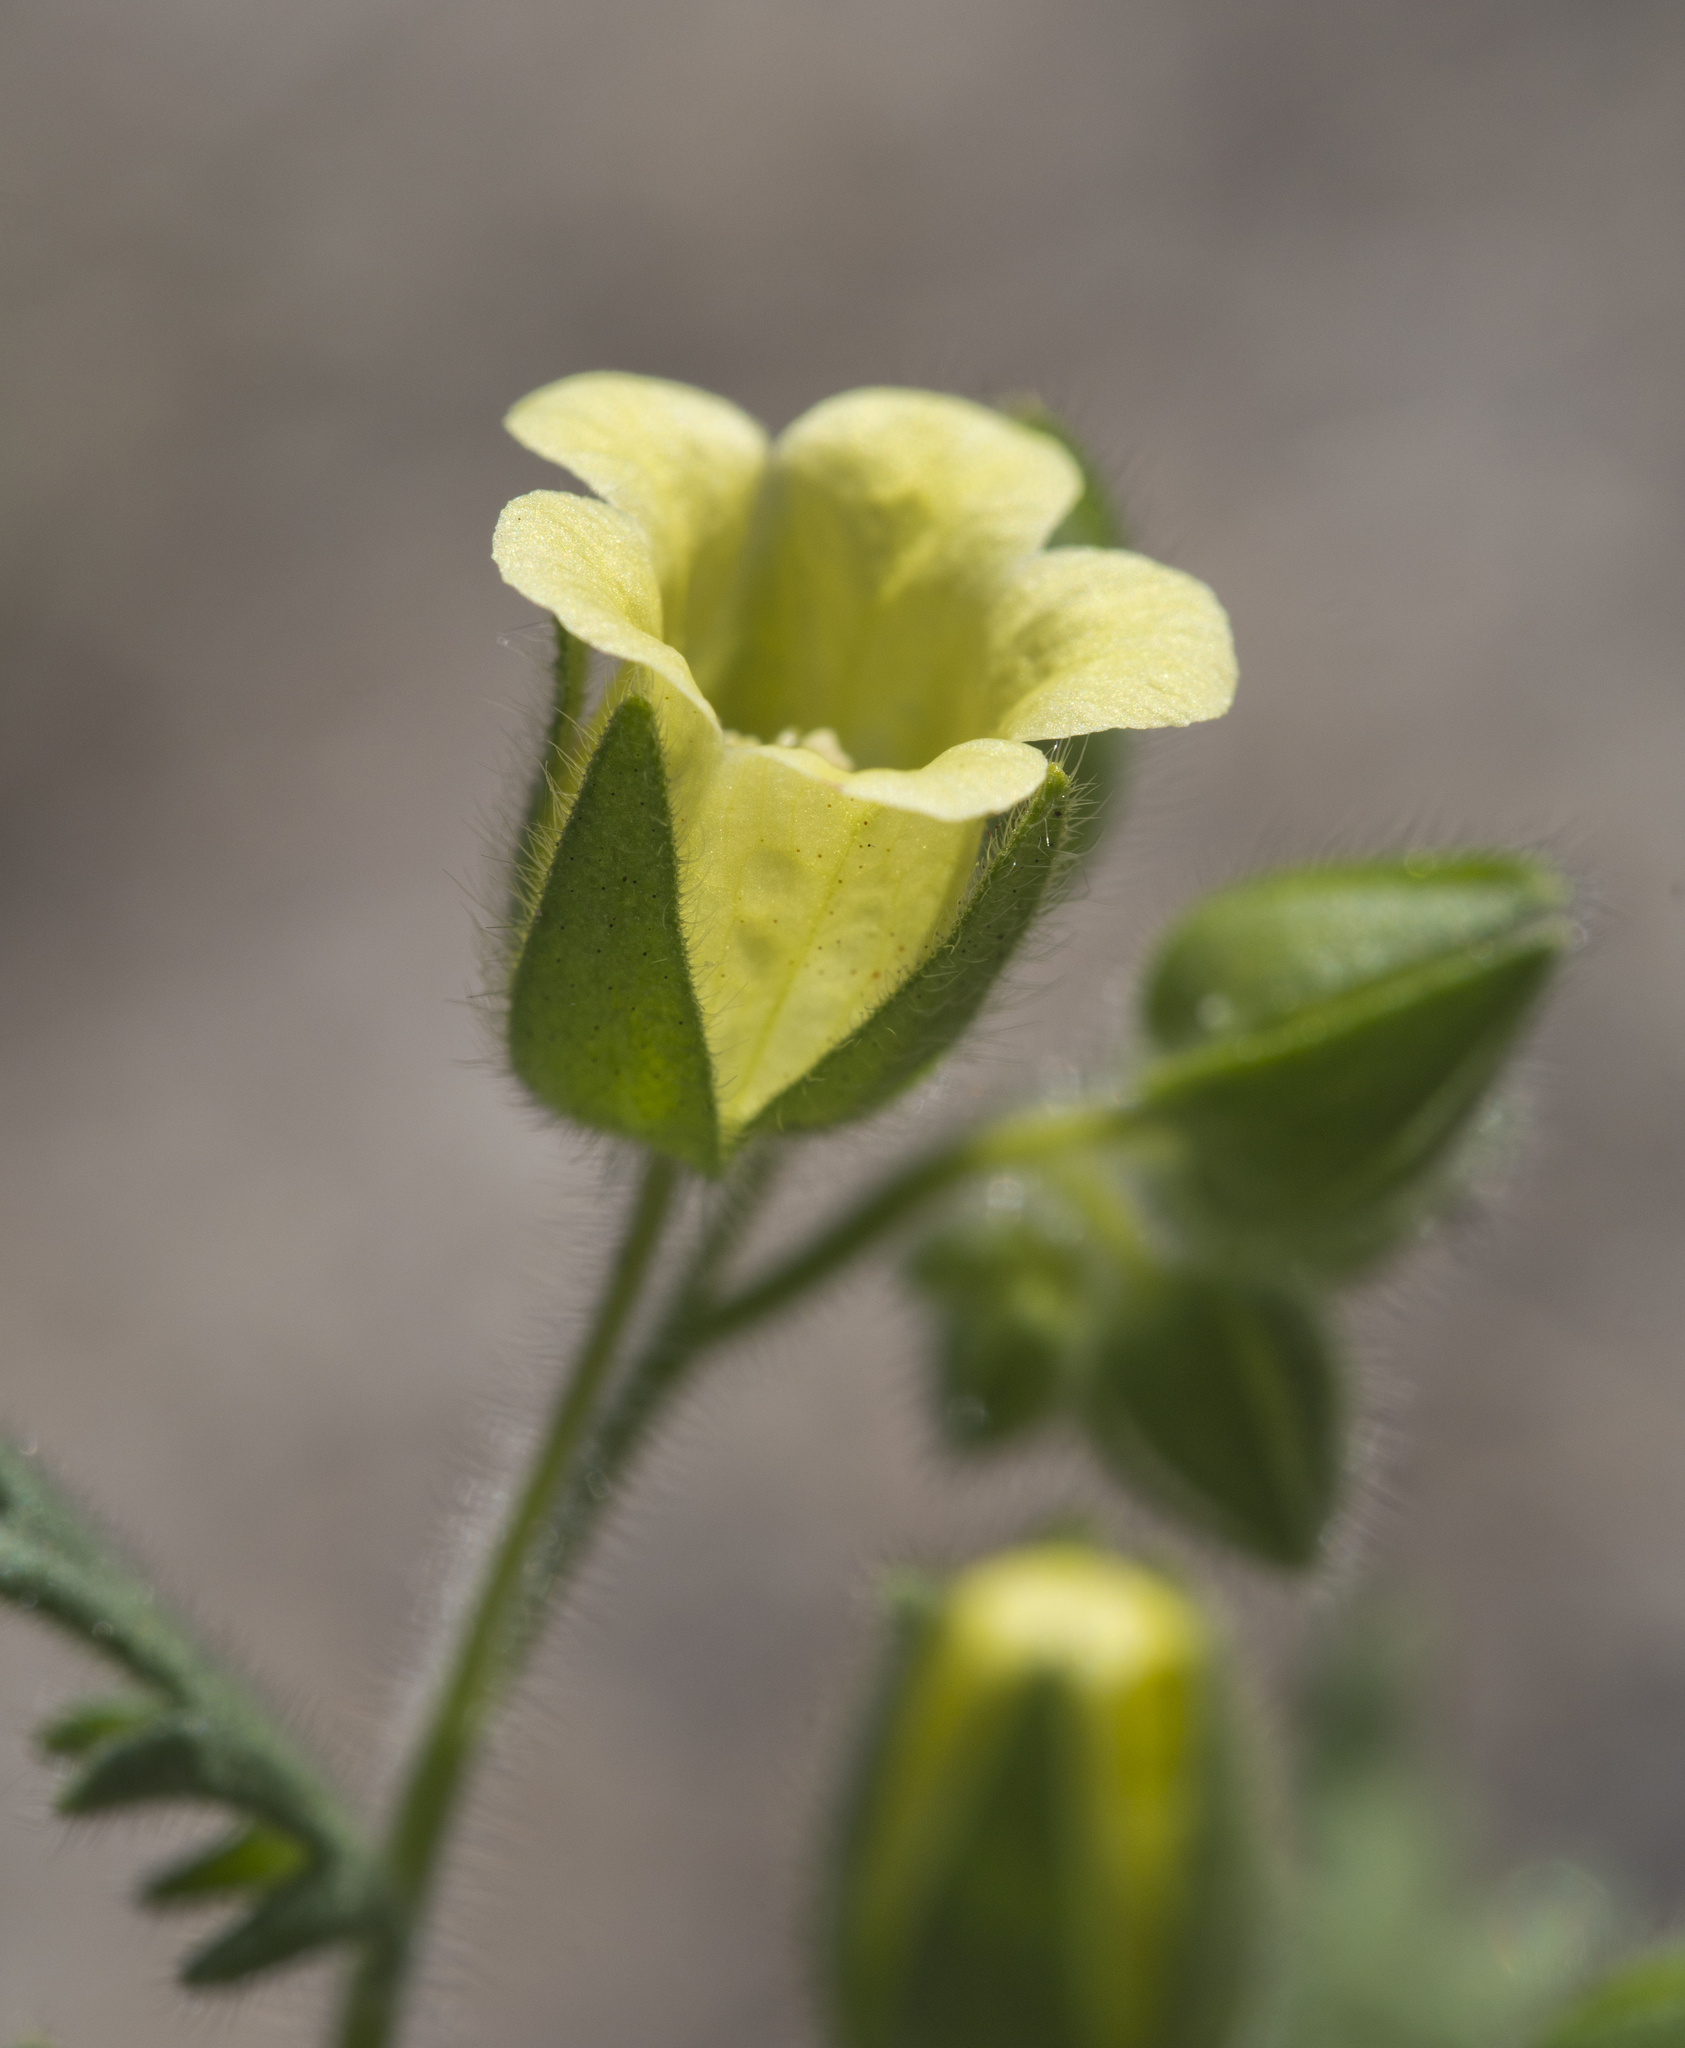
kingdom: Plantae
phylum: Tracheophyta
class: Magnoliopsida
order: Boraginales
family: Hydrophyllaceae
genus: Emmenanthe
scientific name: Emmenanthe penduliflora
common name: Whispering-bells
